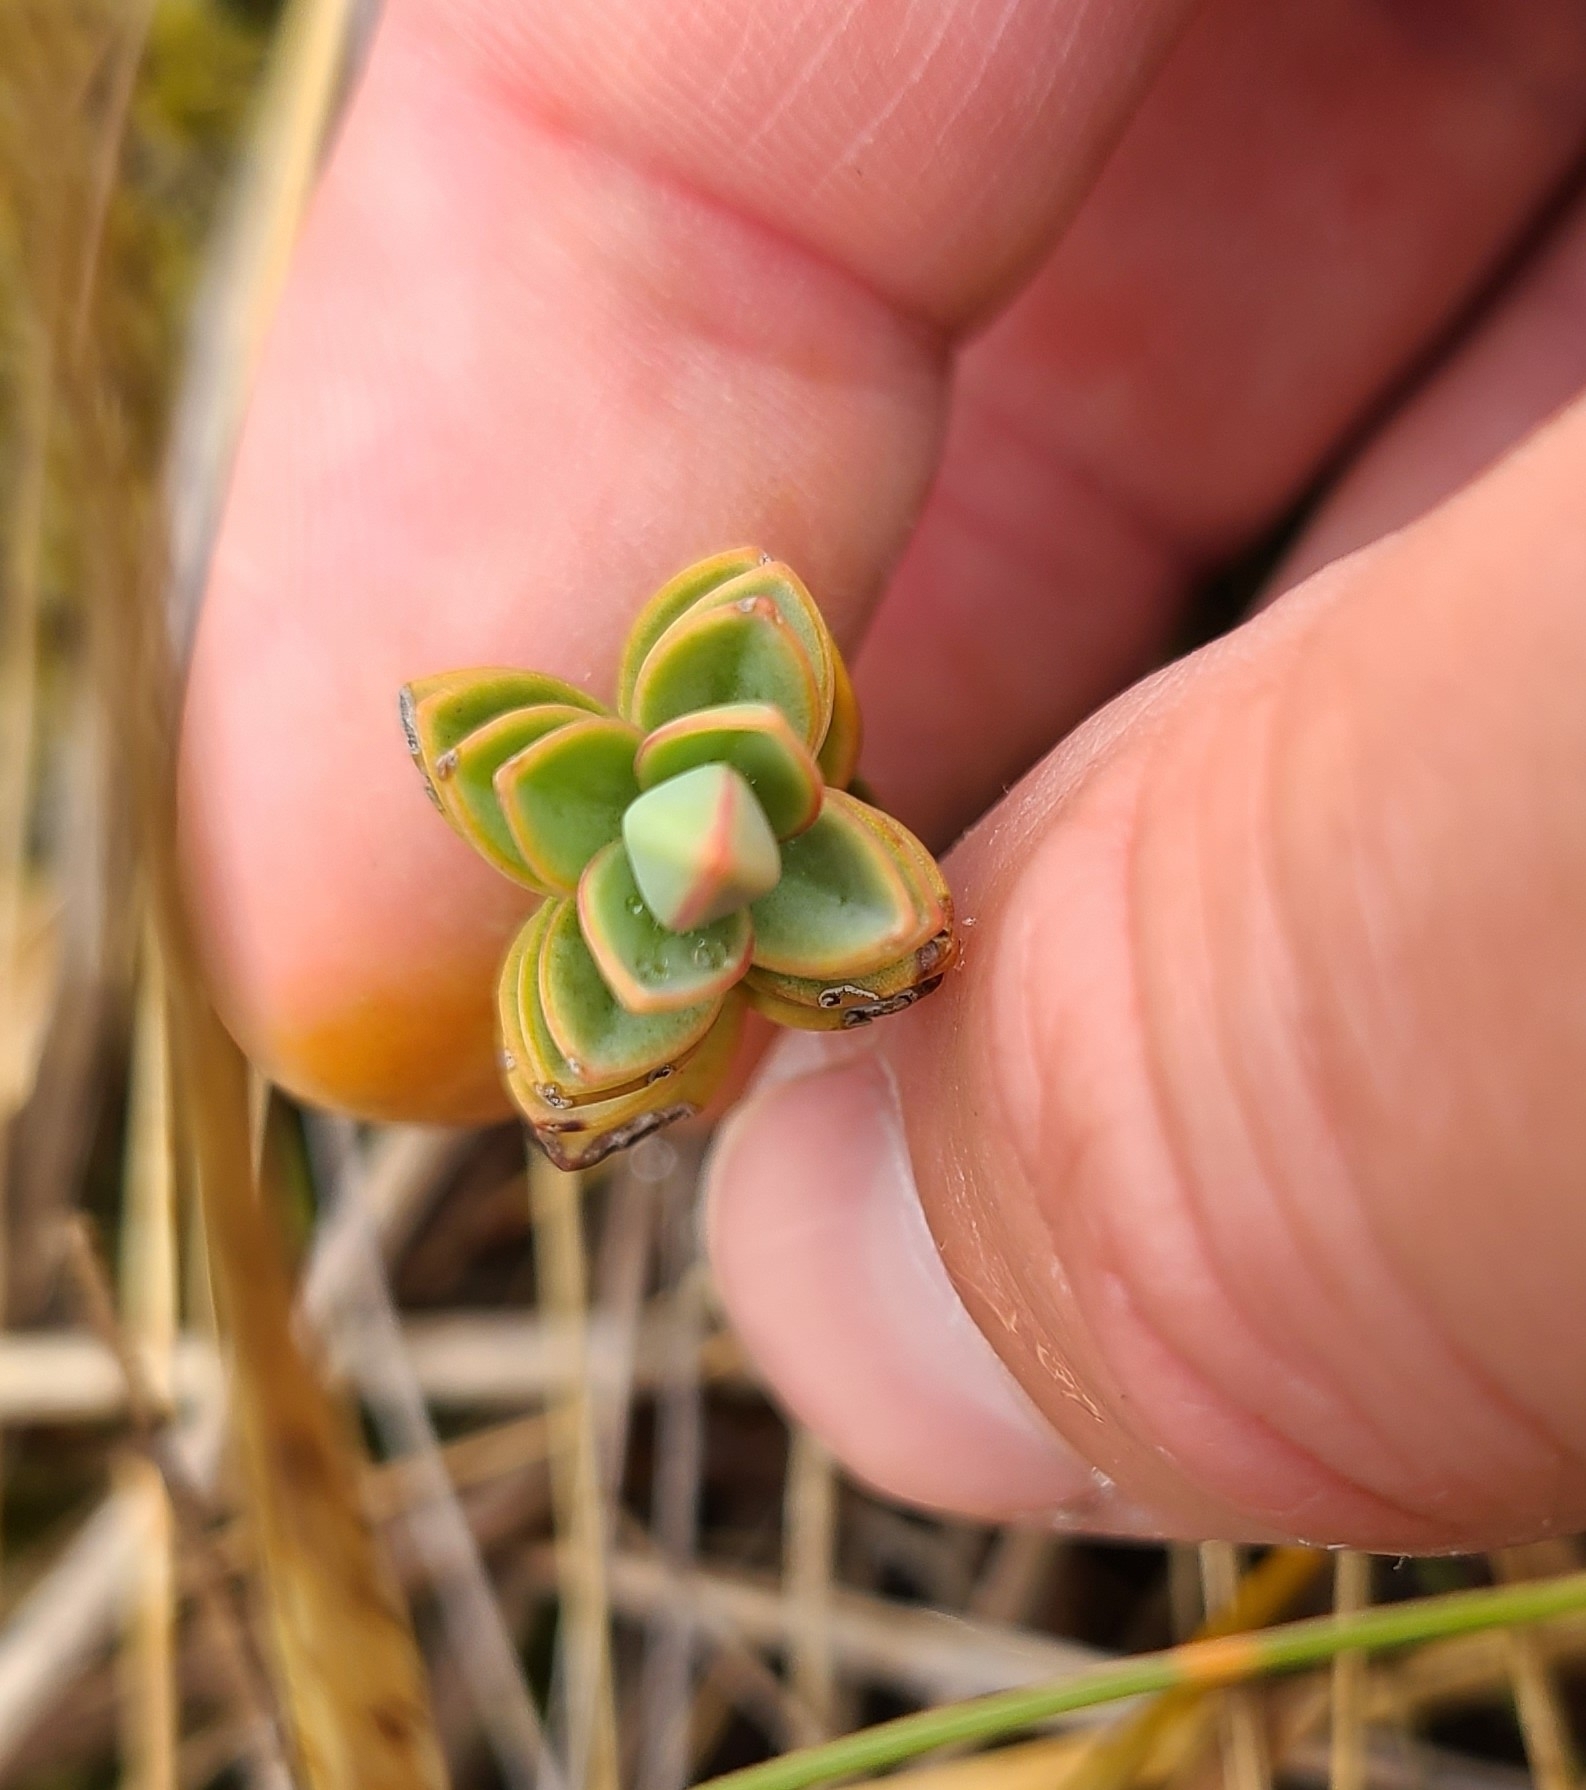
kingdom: Plantae
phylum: Tracheophyta
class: Magnoliopsida
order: Lamiales
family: Plantaginaceae
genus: Veronica
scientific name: Veronica pinguifolia
